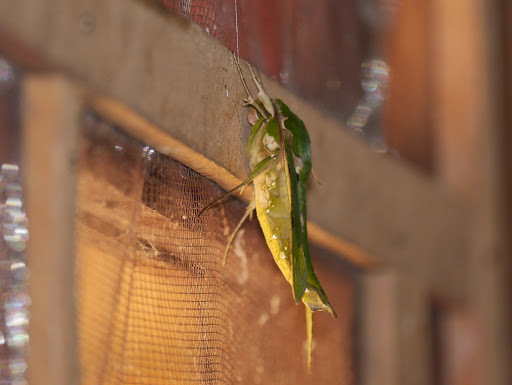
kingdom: Animalia
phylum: Arthropoda
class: Insecta
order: Lepidoptera
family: Sphingidae
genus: Euchloron
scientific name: Euchloron megaera
